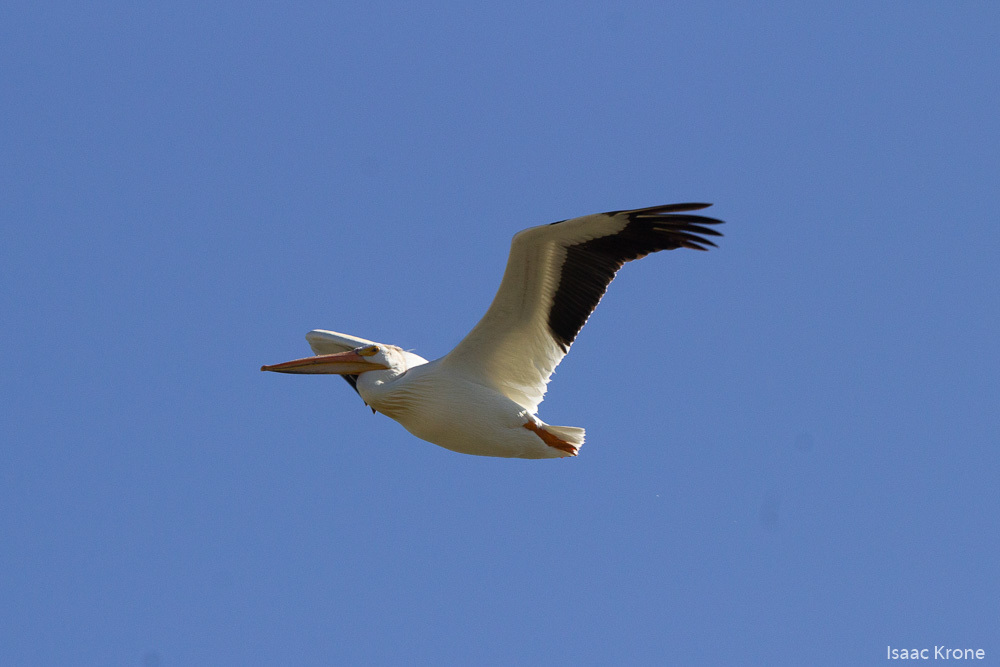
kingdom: Animalia
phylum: Chordata
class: Aves
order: Pelecaniformes
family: Pelecanidae
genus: Pelecanus
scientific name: Pelecanus erythrorhynchos
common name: American white pelican
